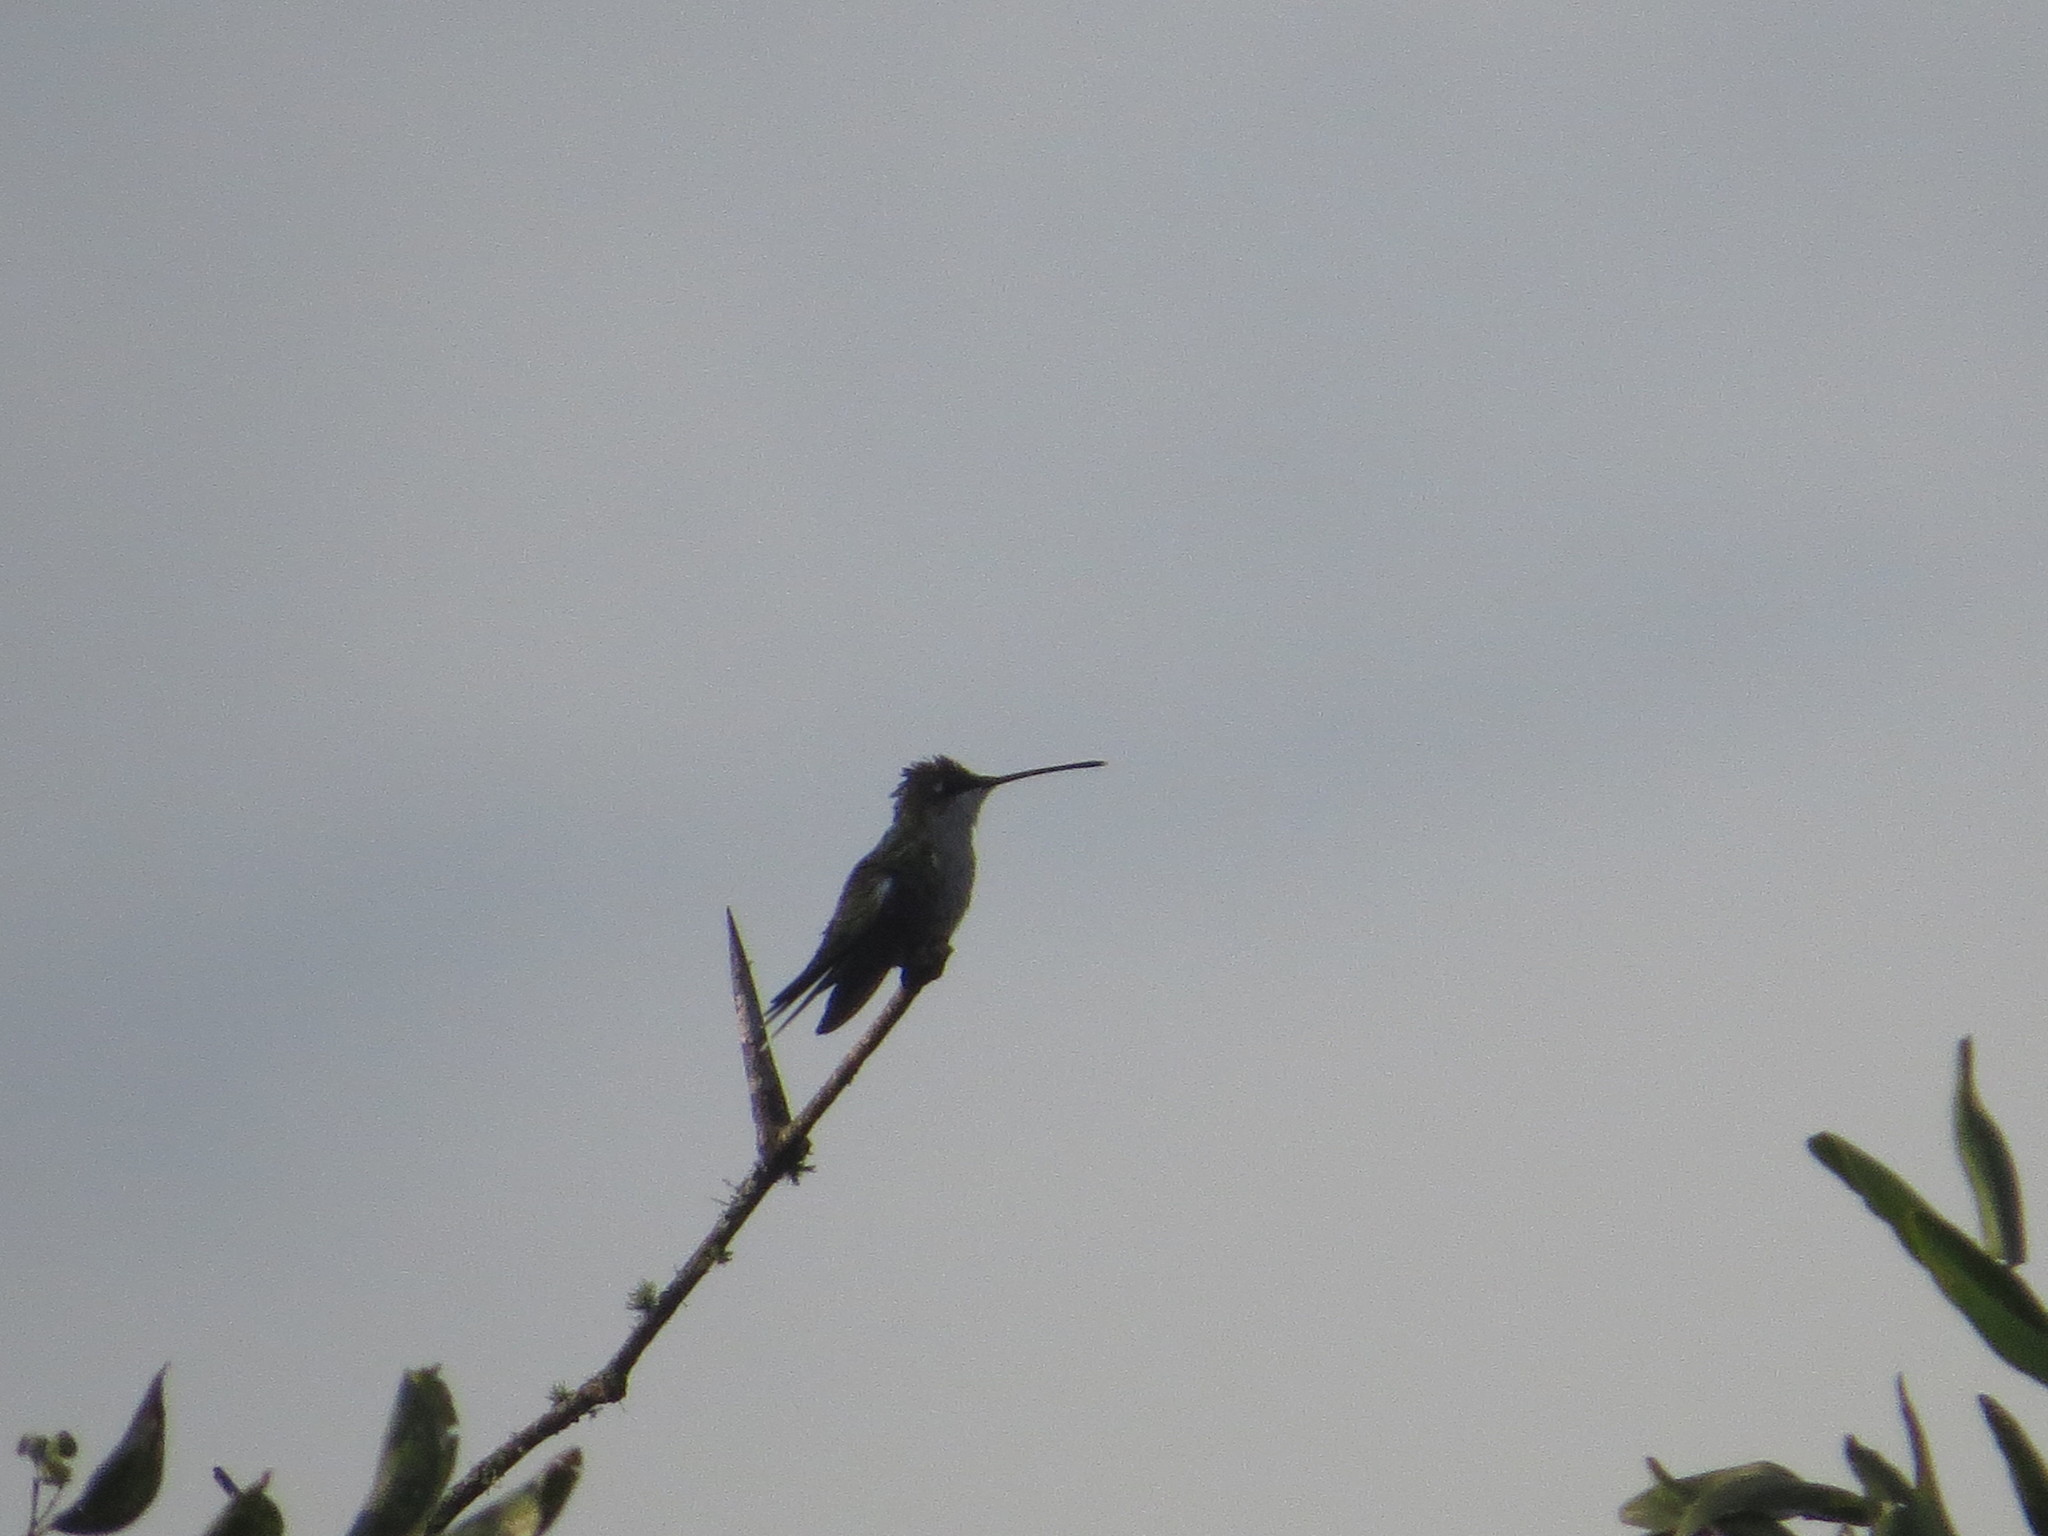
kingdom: Animalia
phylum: Chordata
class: Aves
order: Apodiformes
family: Trochilidae
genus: Heliomaster
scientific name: Heliomaster furcifer
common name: Blue-tufted starthroat
